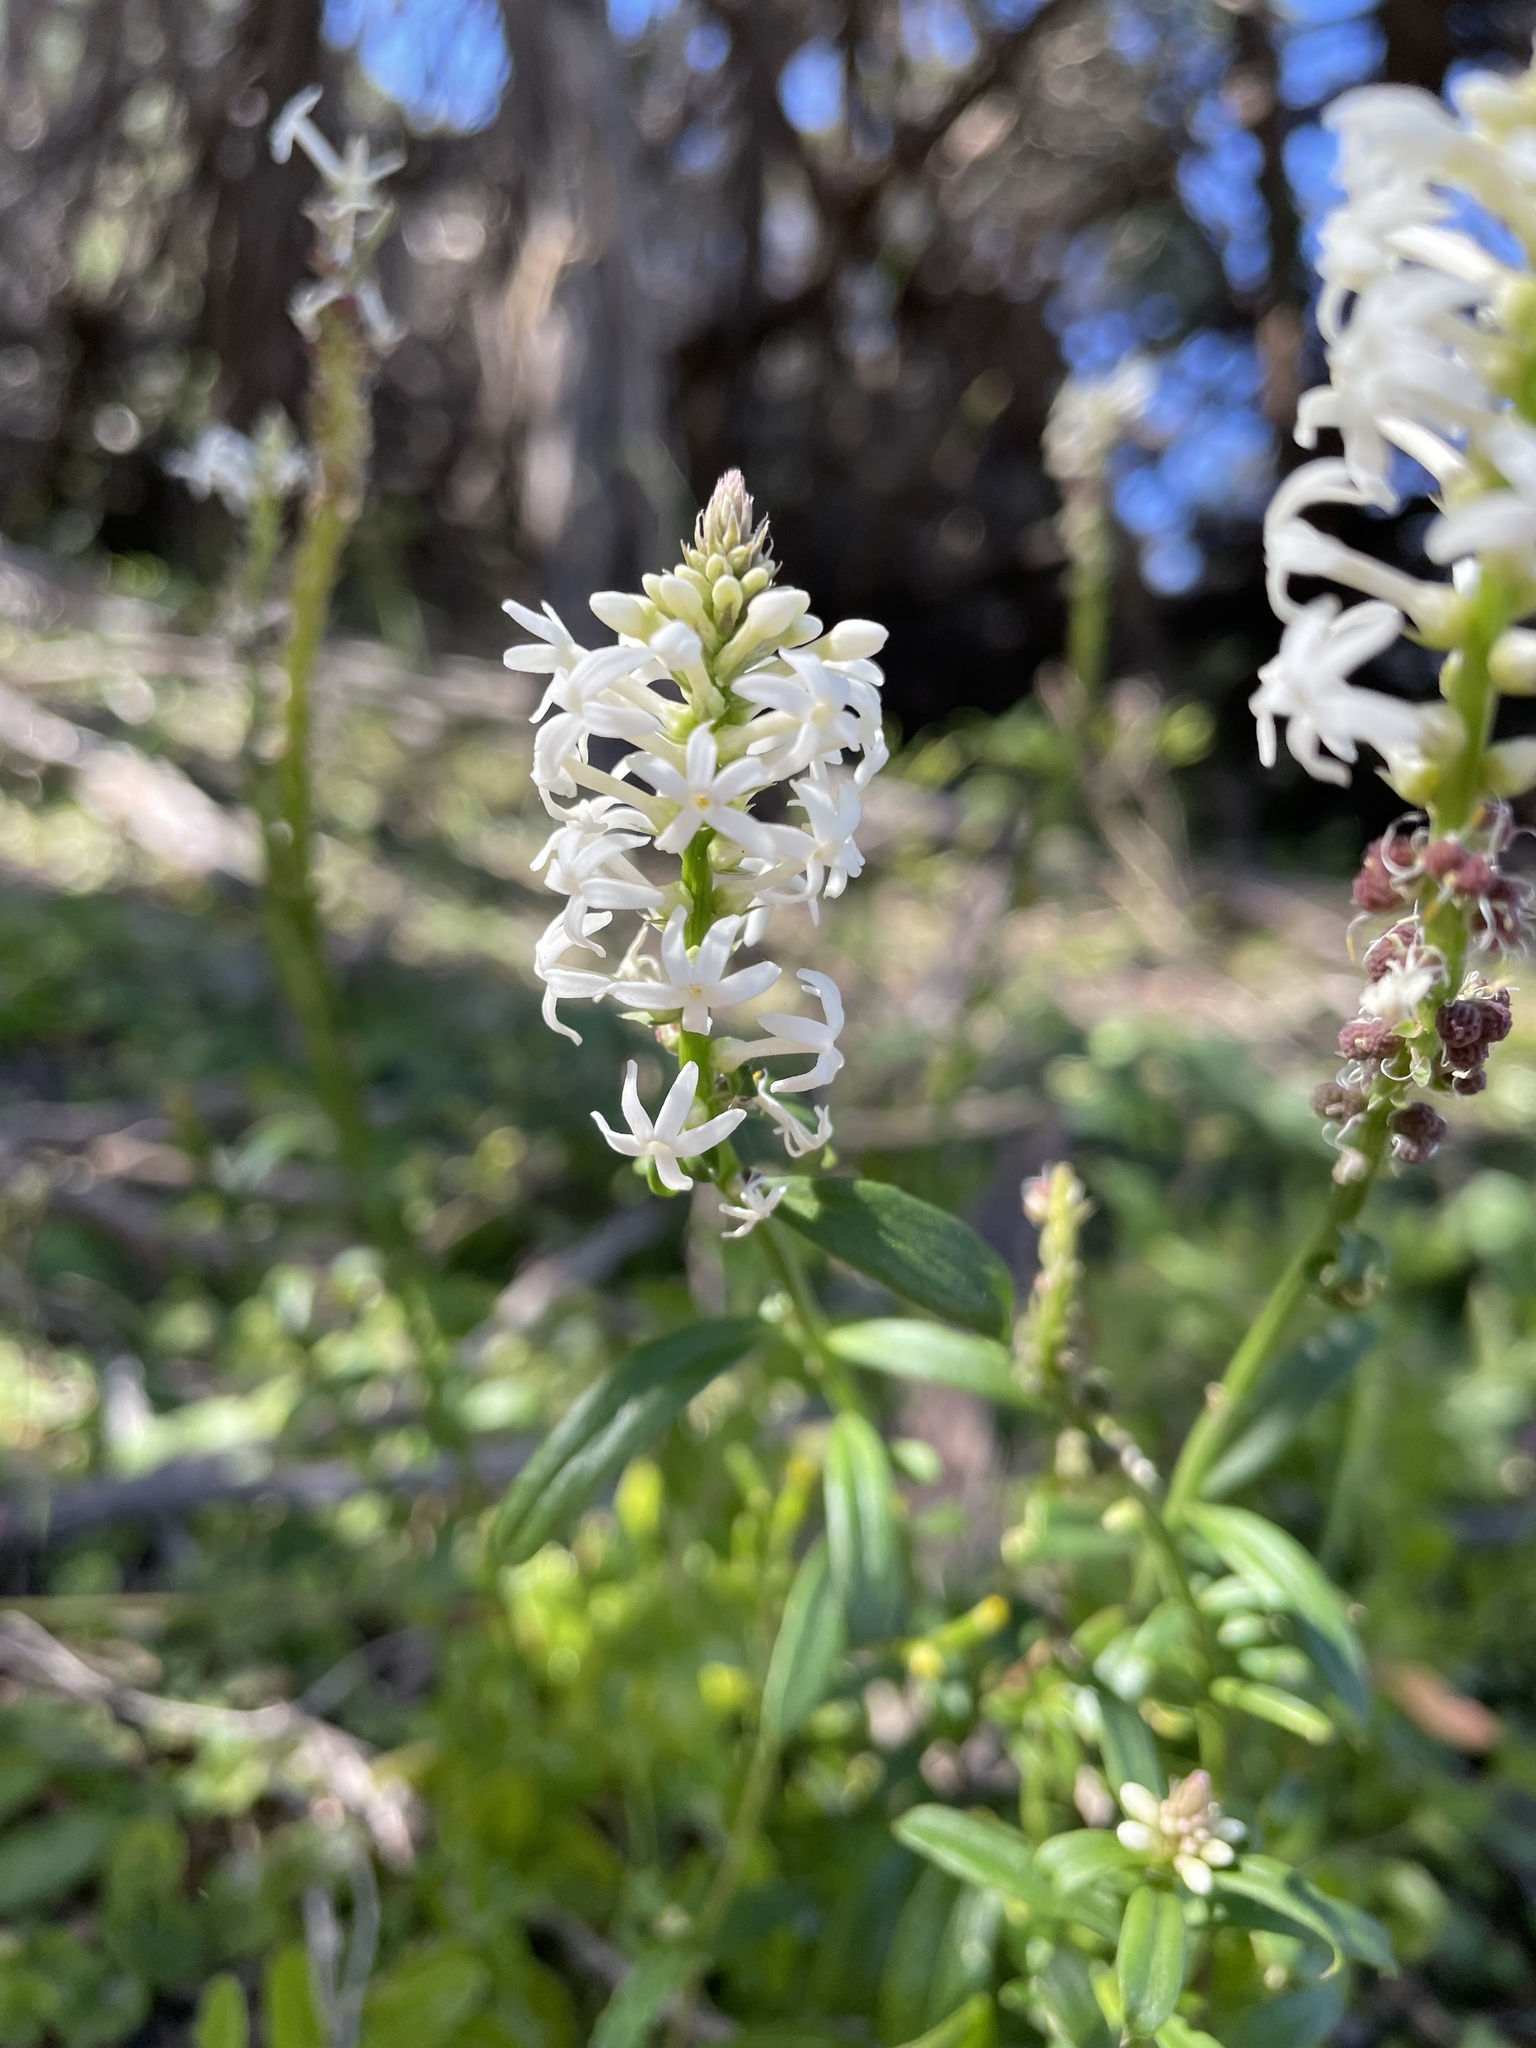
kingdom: Plantae
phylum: Tracheophyta
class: Magnoliopsida
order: Celastrales
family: Celastraceae
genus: Stackhousia
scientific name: Stackhousia monogyna
